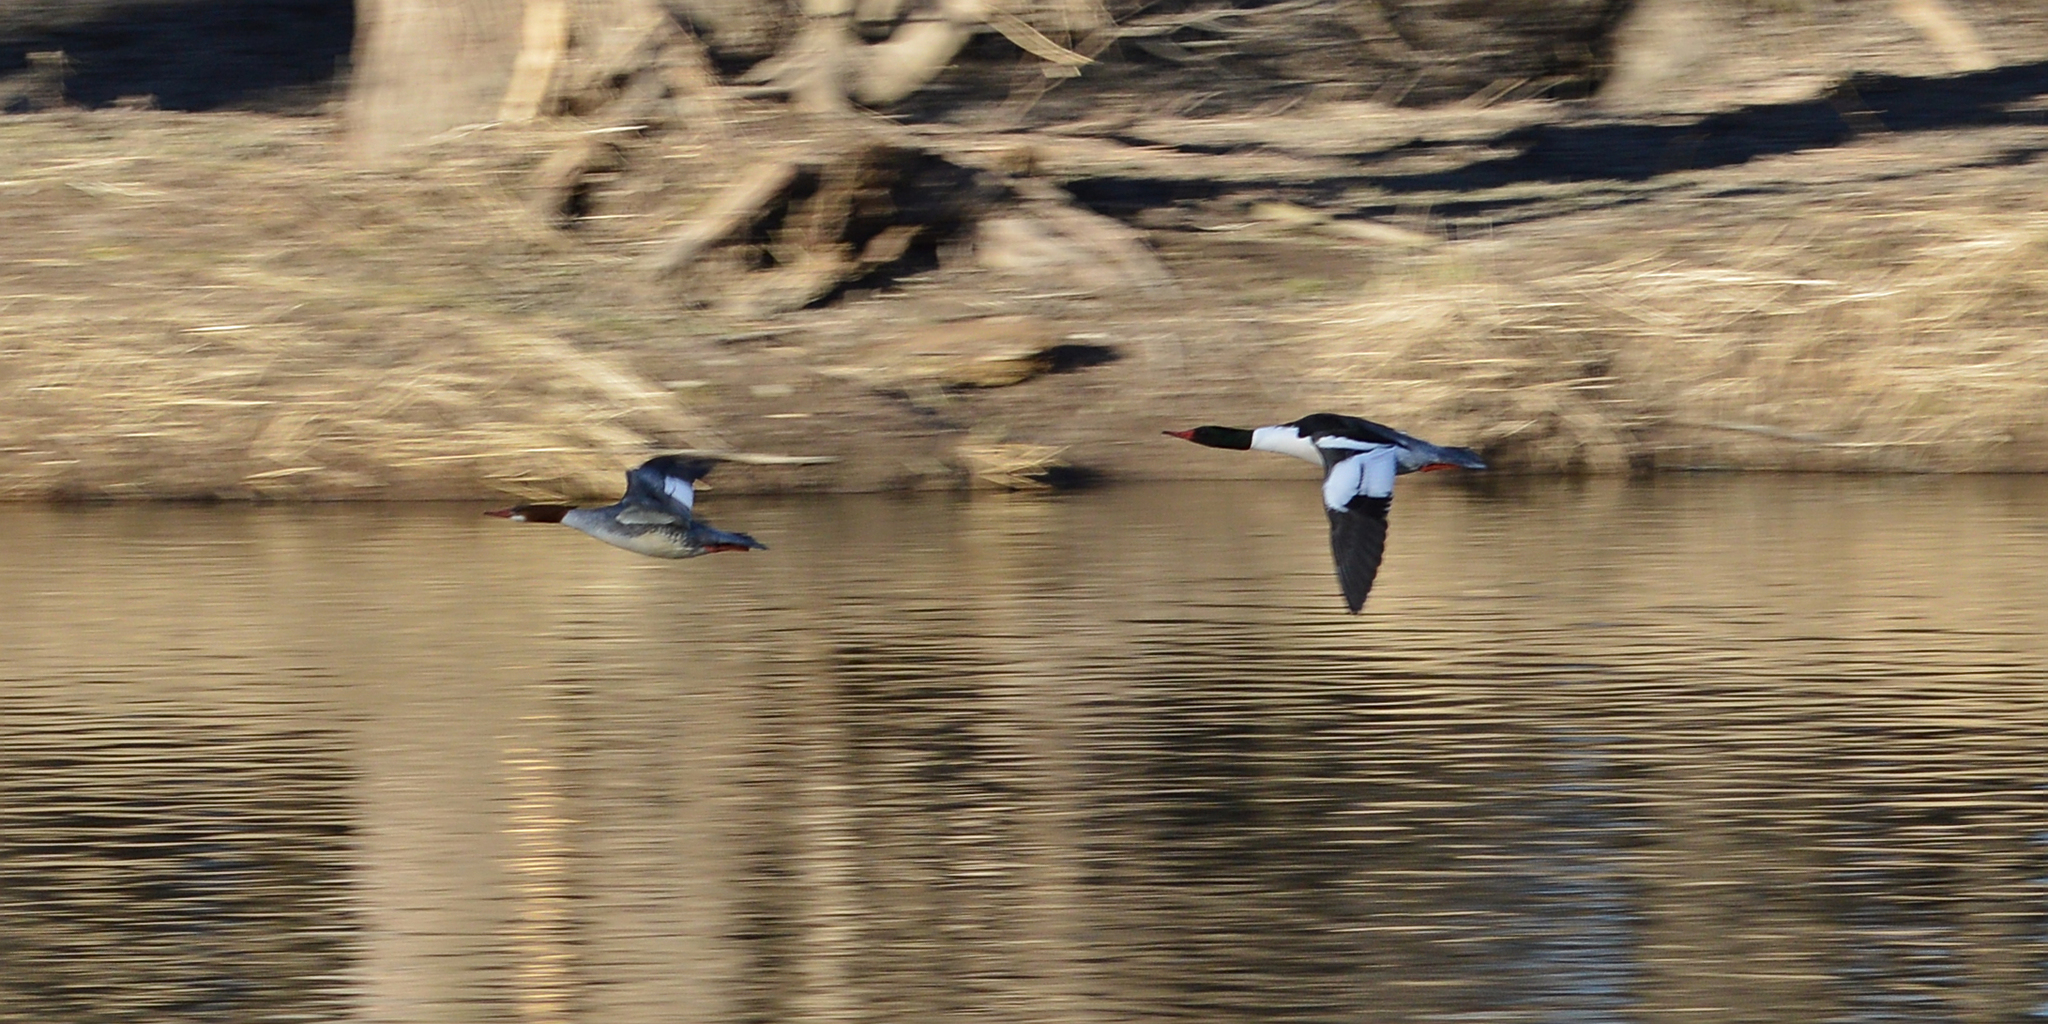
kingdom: Animalia
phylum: Chordata
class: Aves
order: Anseriformes
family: Anatidae
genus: Mergus
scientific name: Mergus merganser
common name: Common merganser
